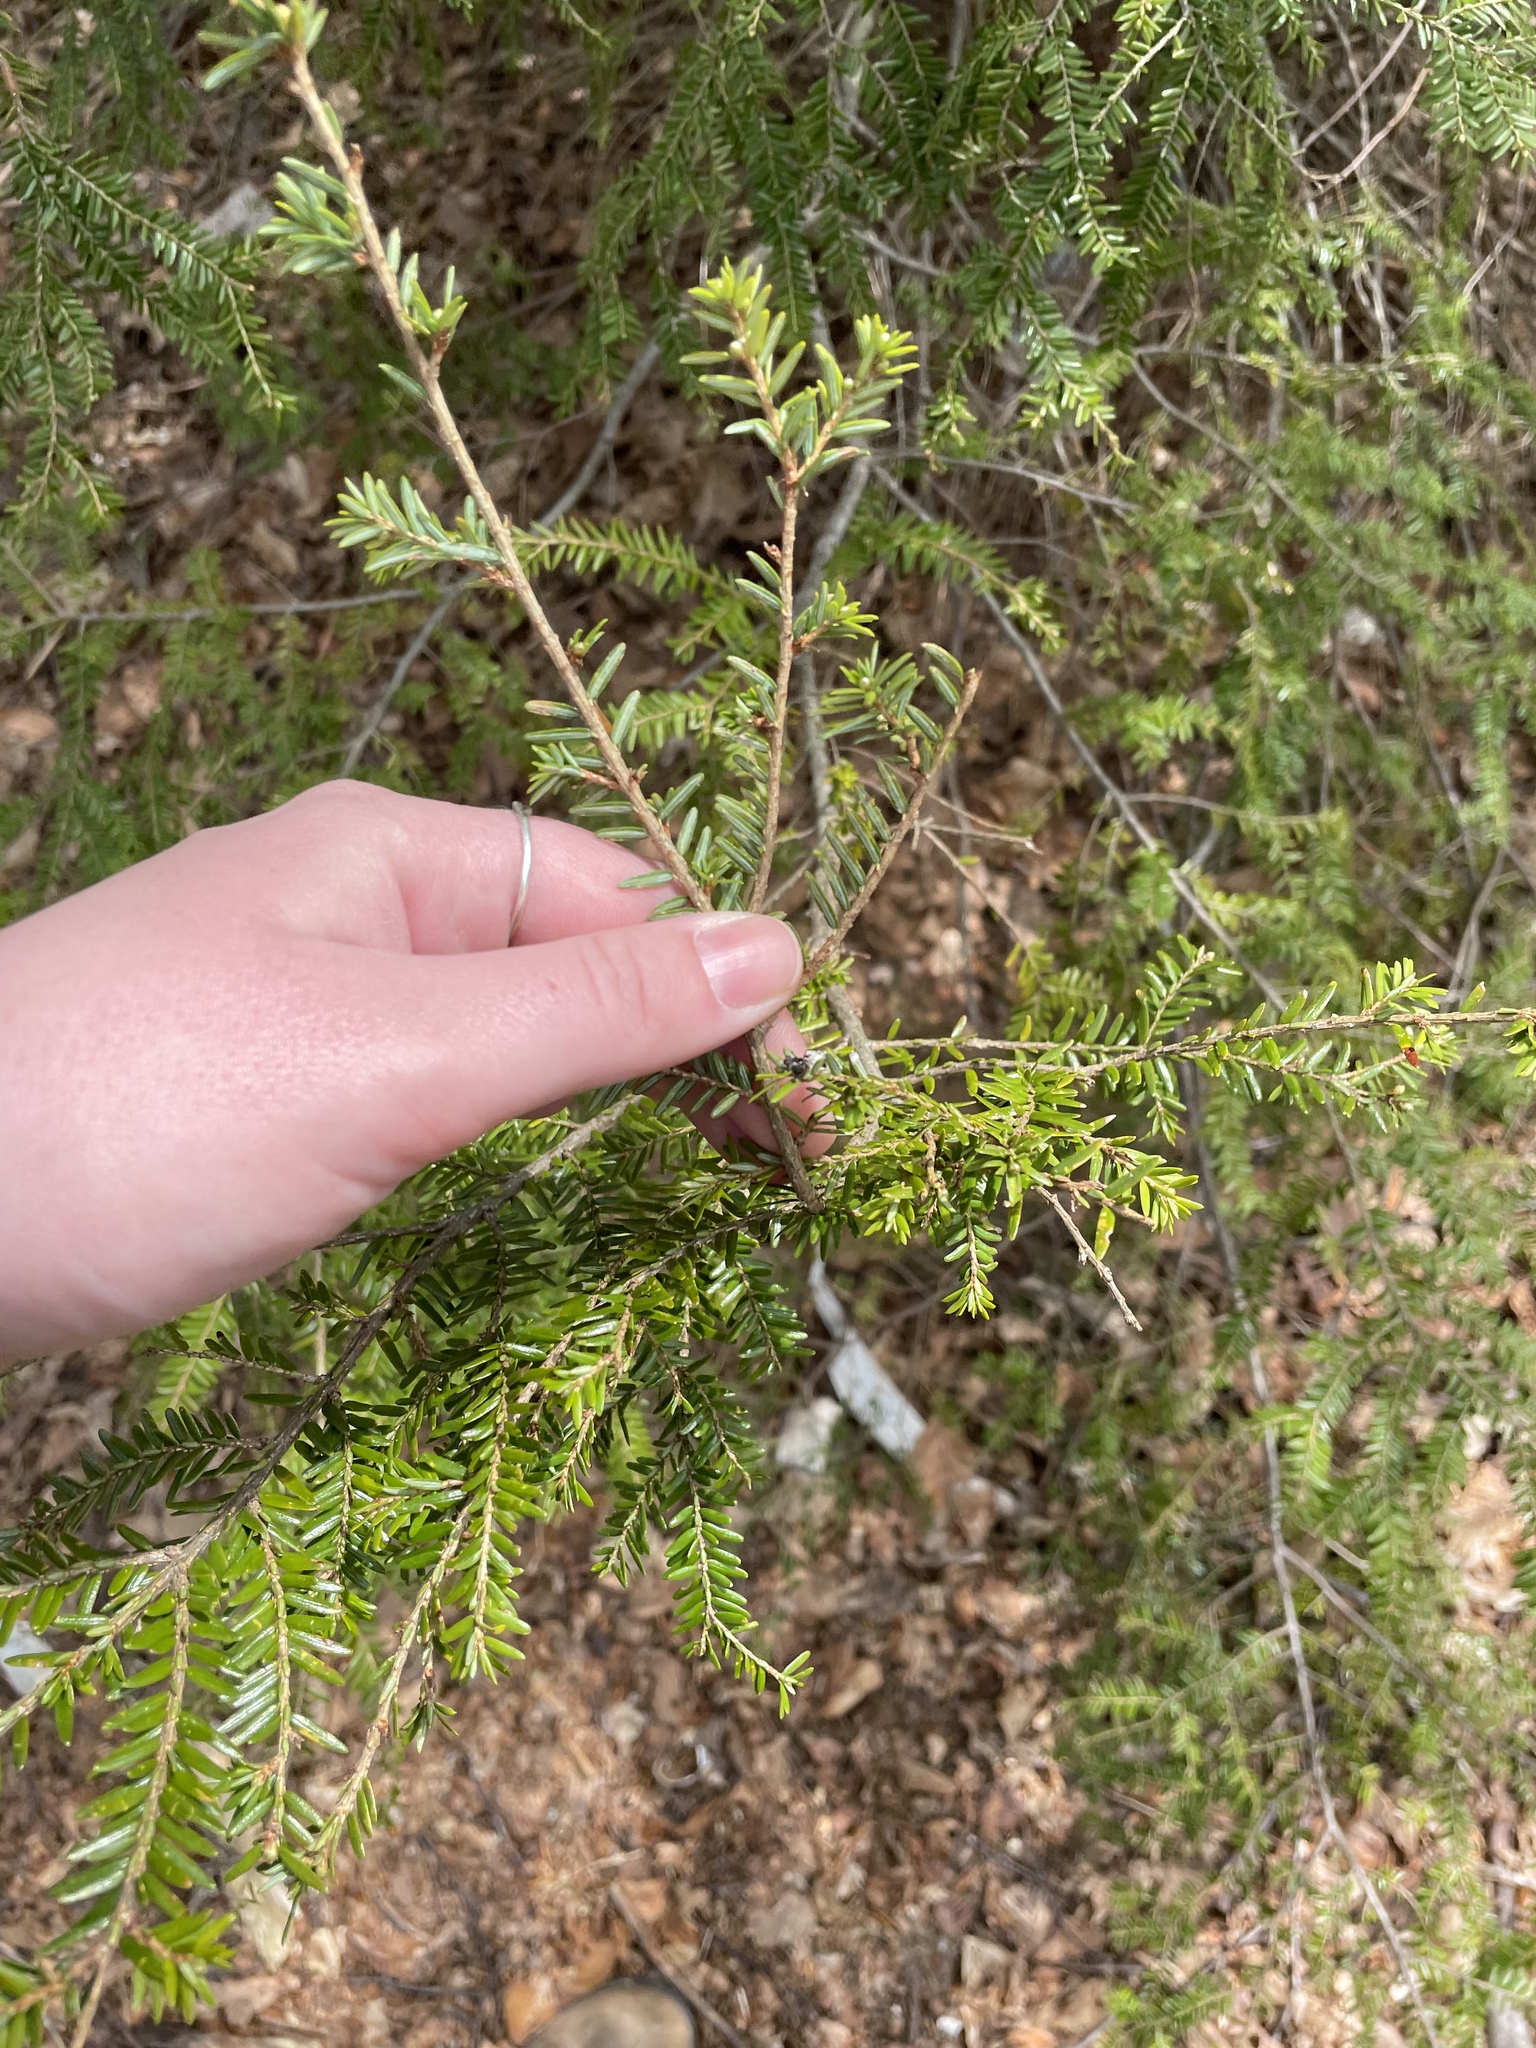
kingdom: Plantae
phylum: Tracheophyta
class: Pinopsida
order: Pinales
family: Pinaceae
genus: Tsuga
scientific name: Tsuga canadensis
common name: Eastern hemlock
